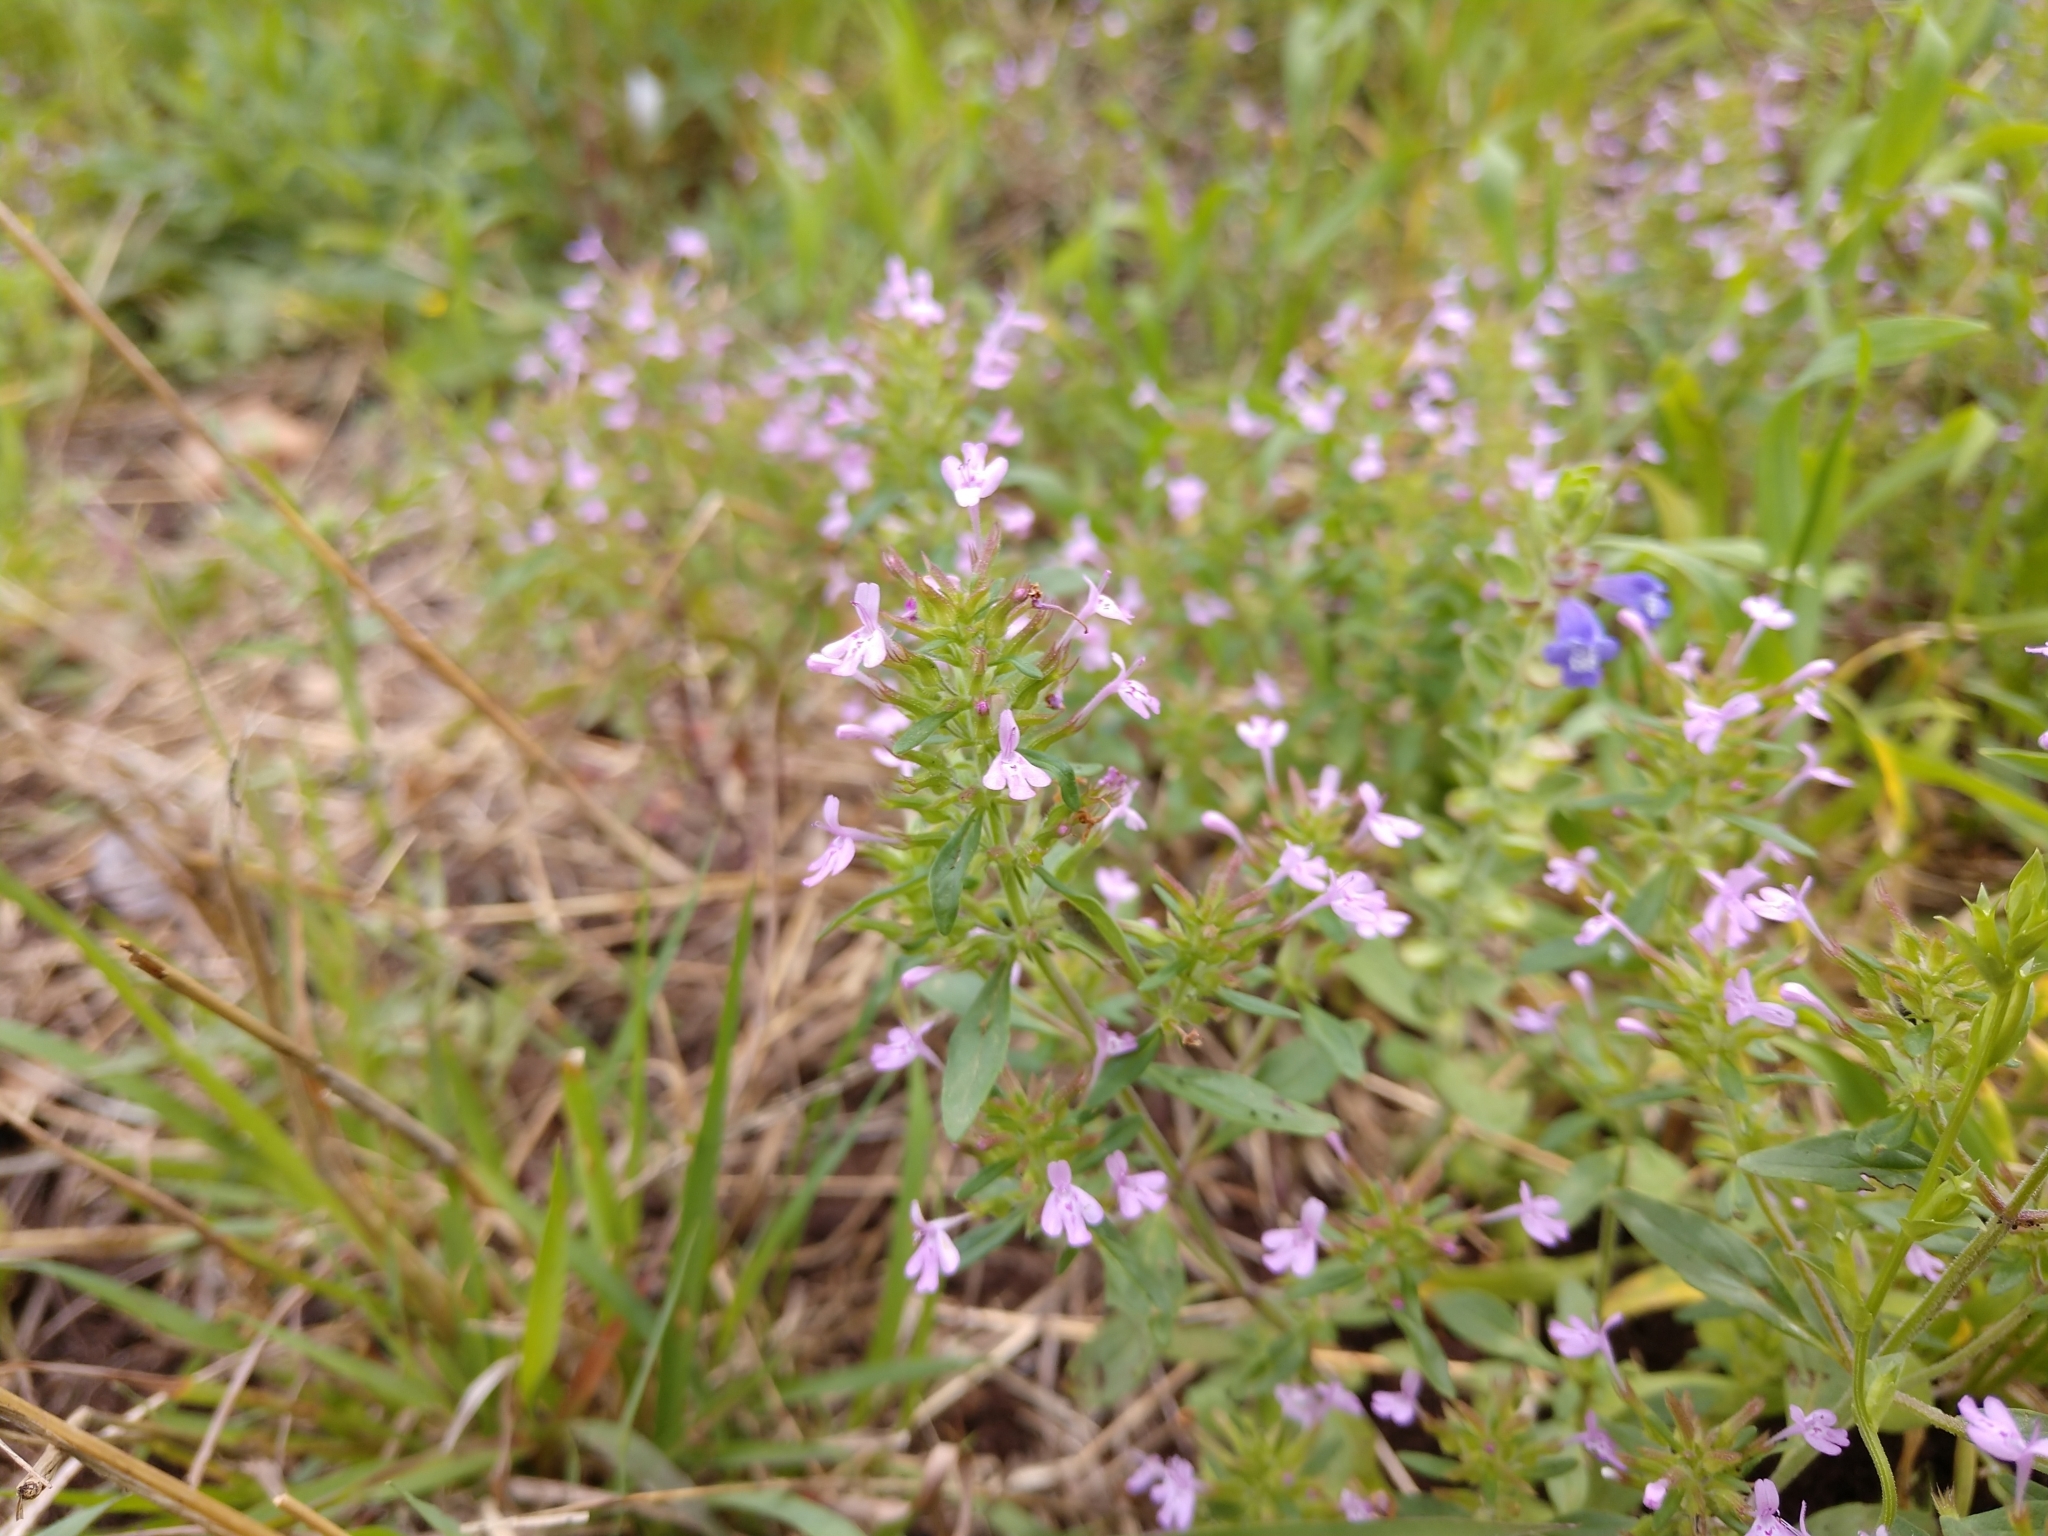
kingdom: Plantae
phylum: Tracheophyta
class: Magnoliopsida
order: Lamiales
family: Lamiaceae
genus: Hedeoma
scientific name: Hedeoma acinoides
